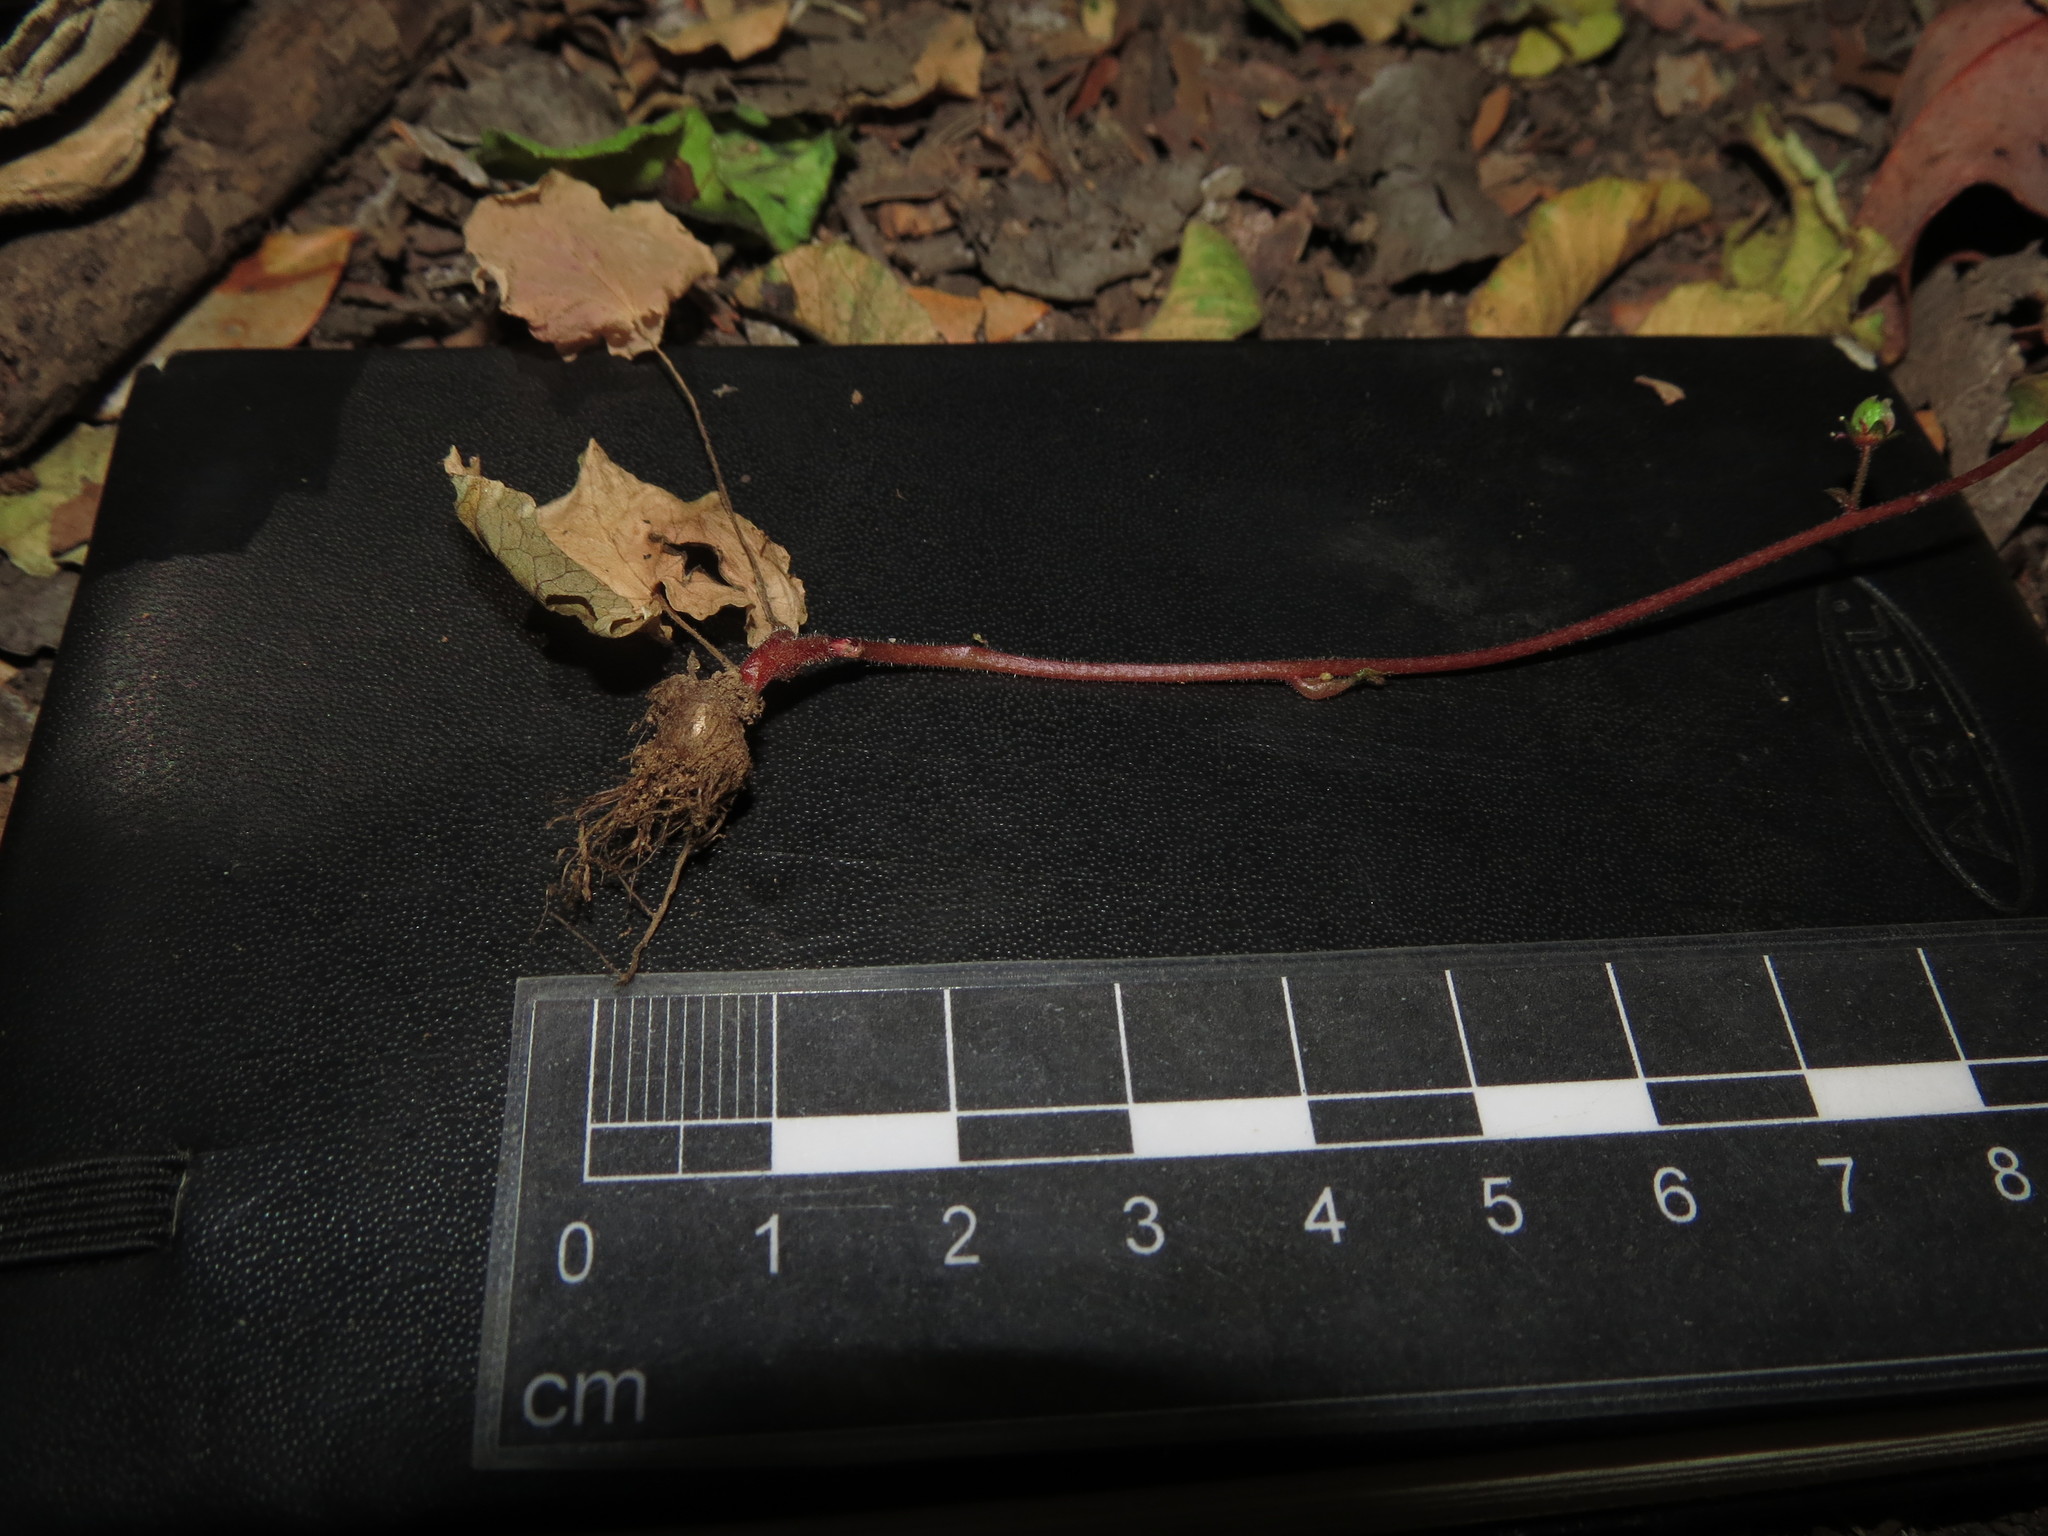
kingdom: Plantae
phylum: Tracheophyta
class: Magnoliopsida
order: Geraniales
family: Francoaceae
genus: Tetilla
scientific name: Tetilla hydrocotylifolia
